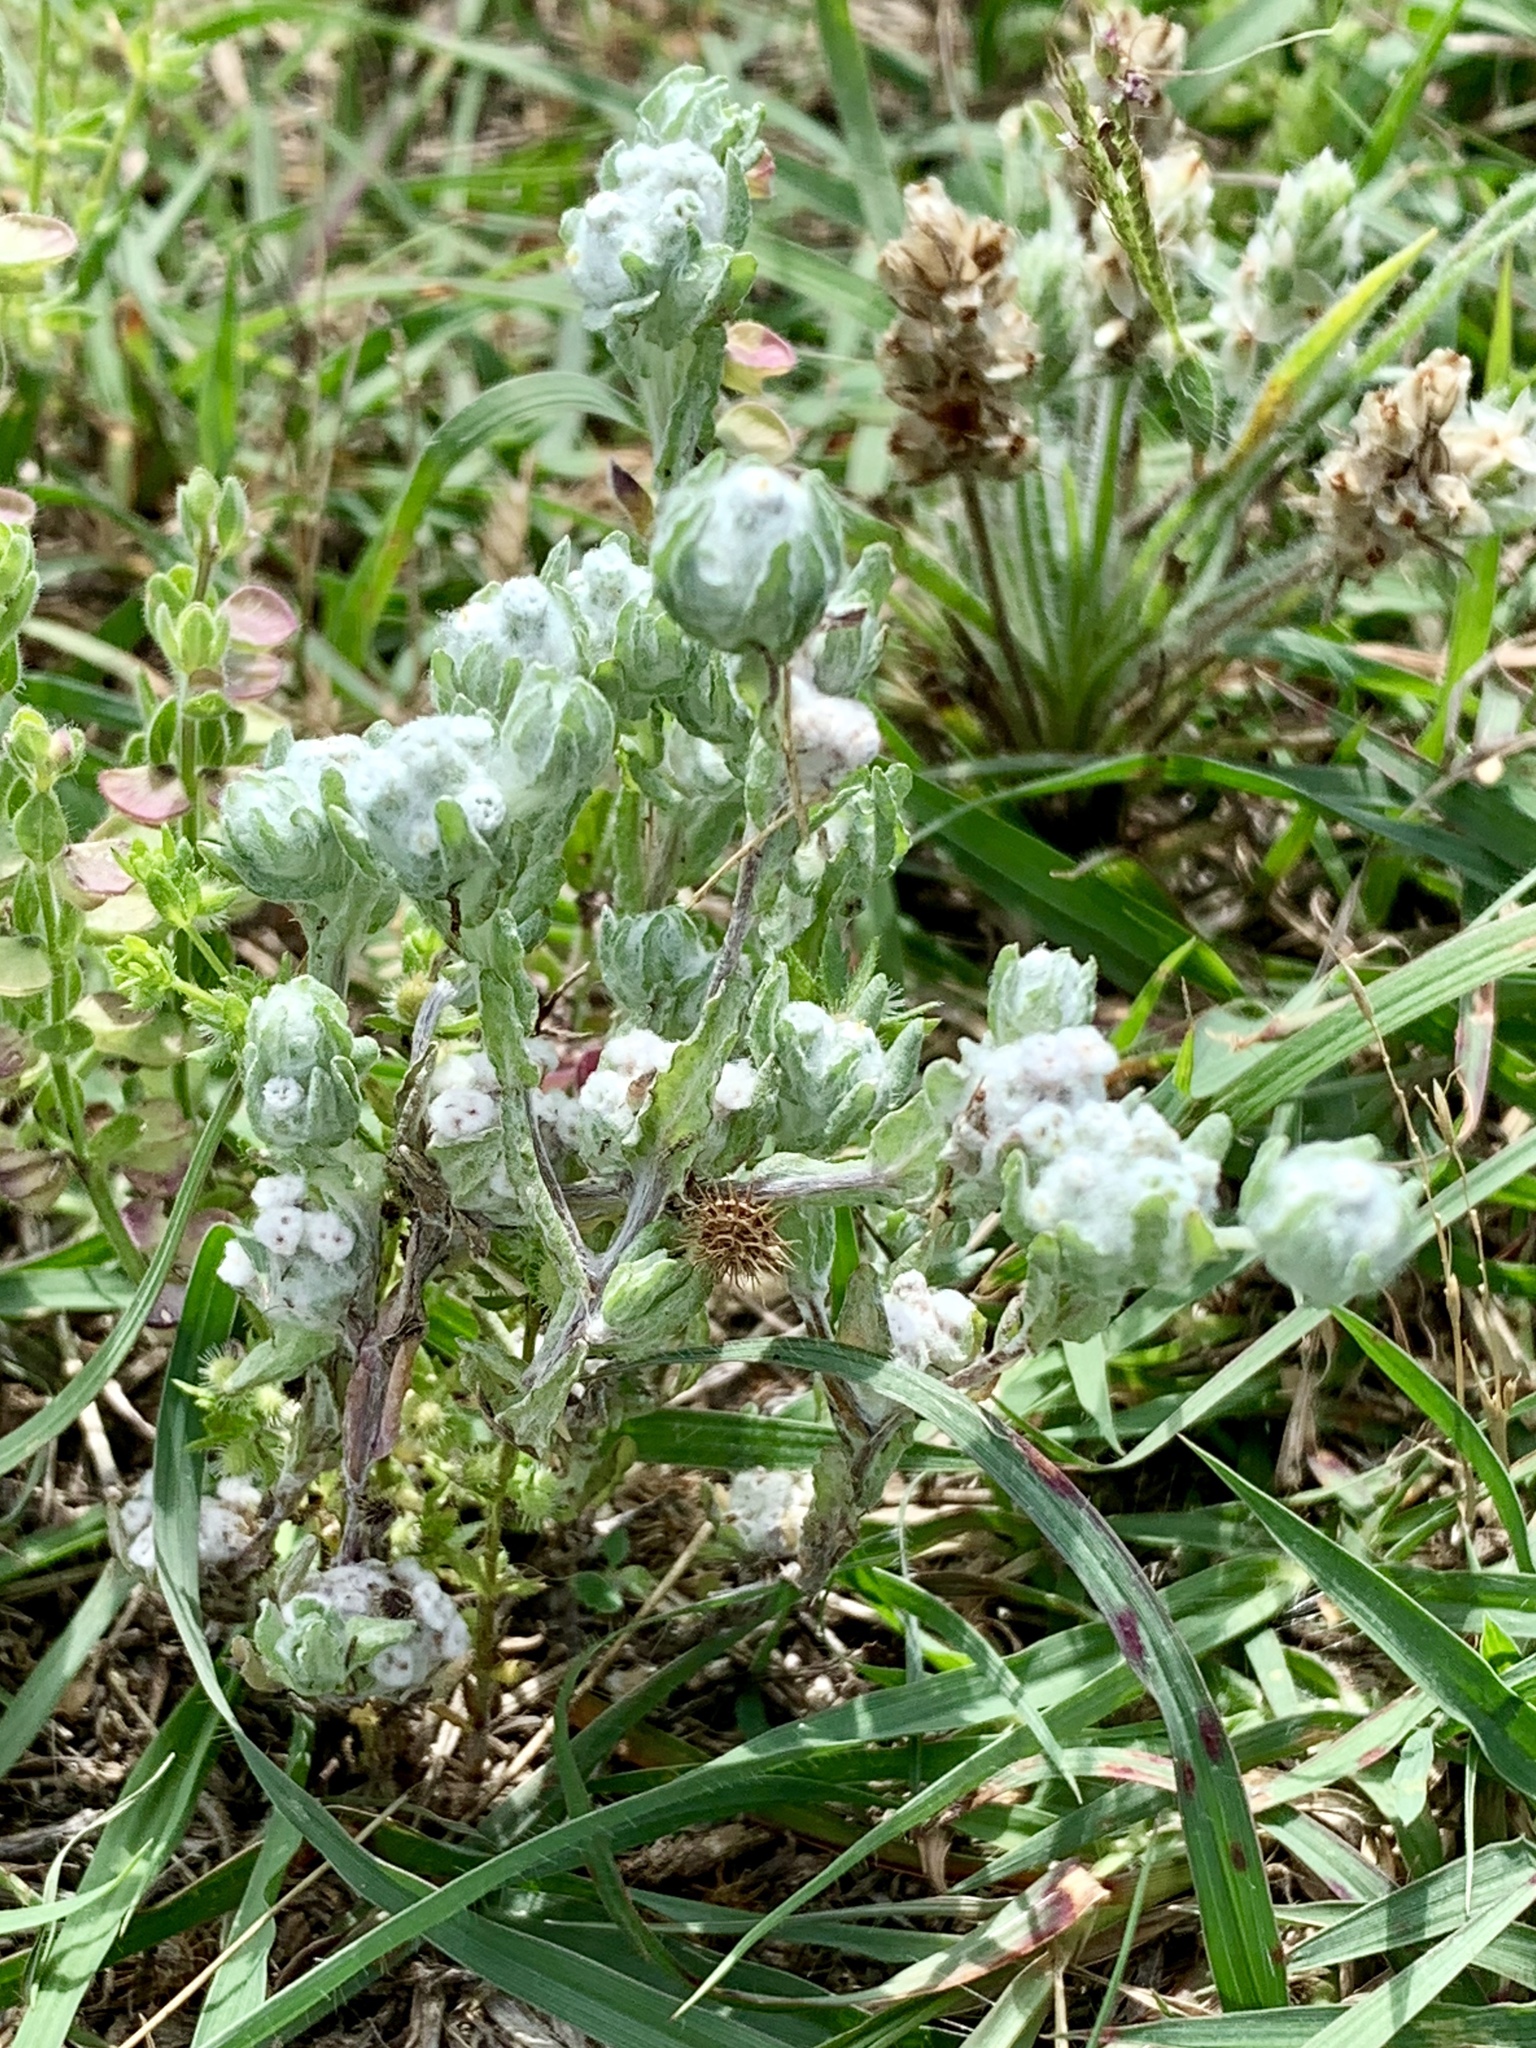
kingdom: Plantae
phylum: Tracheophyta
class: Magnoliopsida
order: Asterales
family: Asteraceae
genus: Diaperia
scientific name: Diaperia verna
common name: Many-stem rabbit-tobacco
